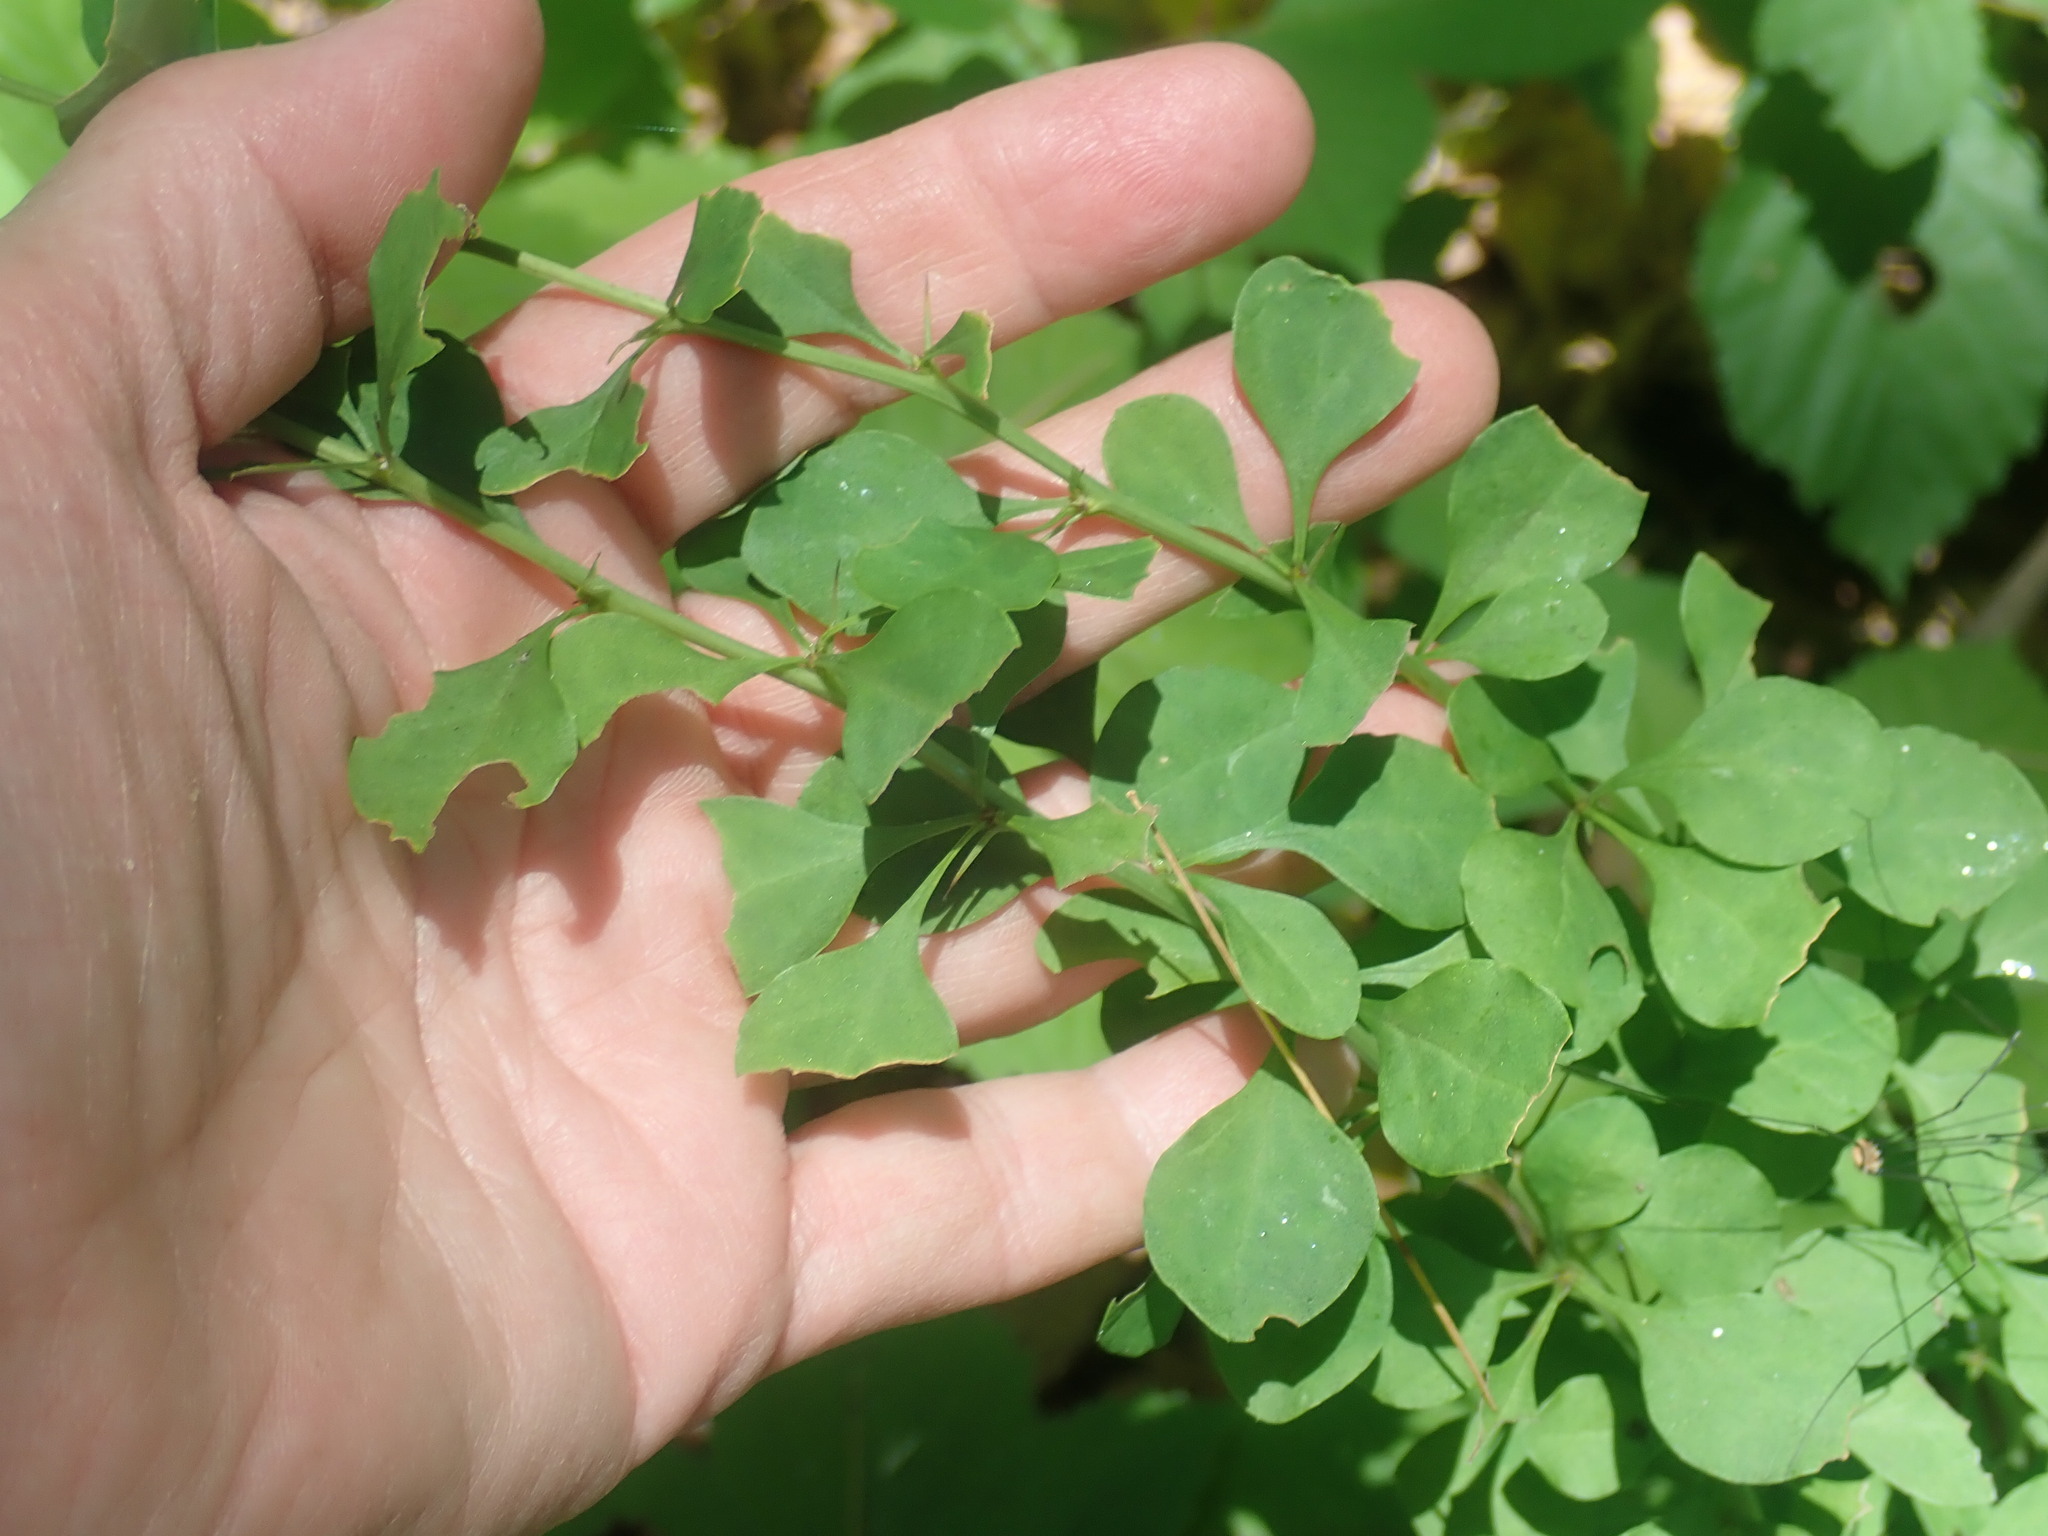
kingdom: Plantae
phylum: Tracheophyta
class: Magnoliopsida
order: Ranunculales
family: Berberidaceae
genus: Berberis
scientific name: Berberis thunbergii
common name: Japanese barberry
